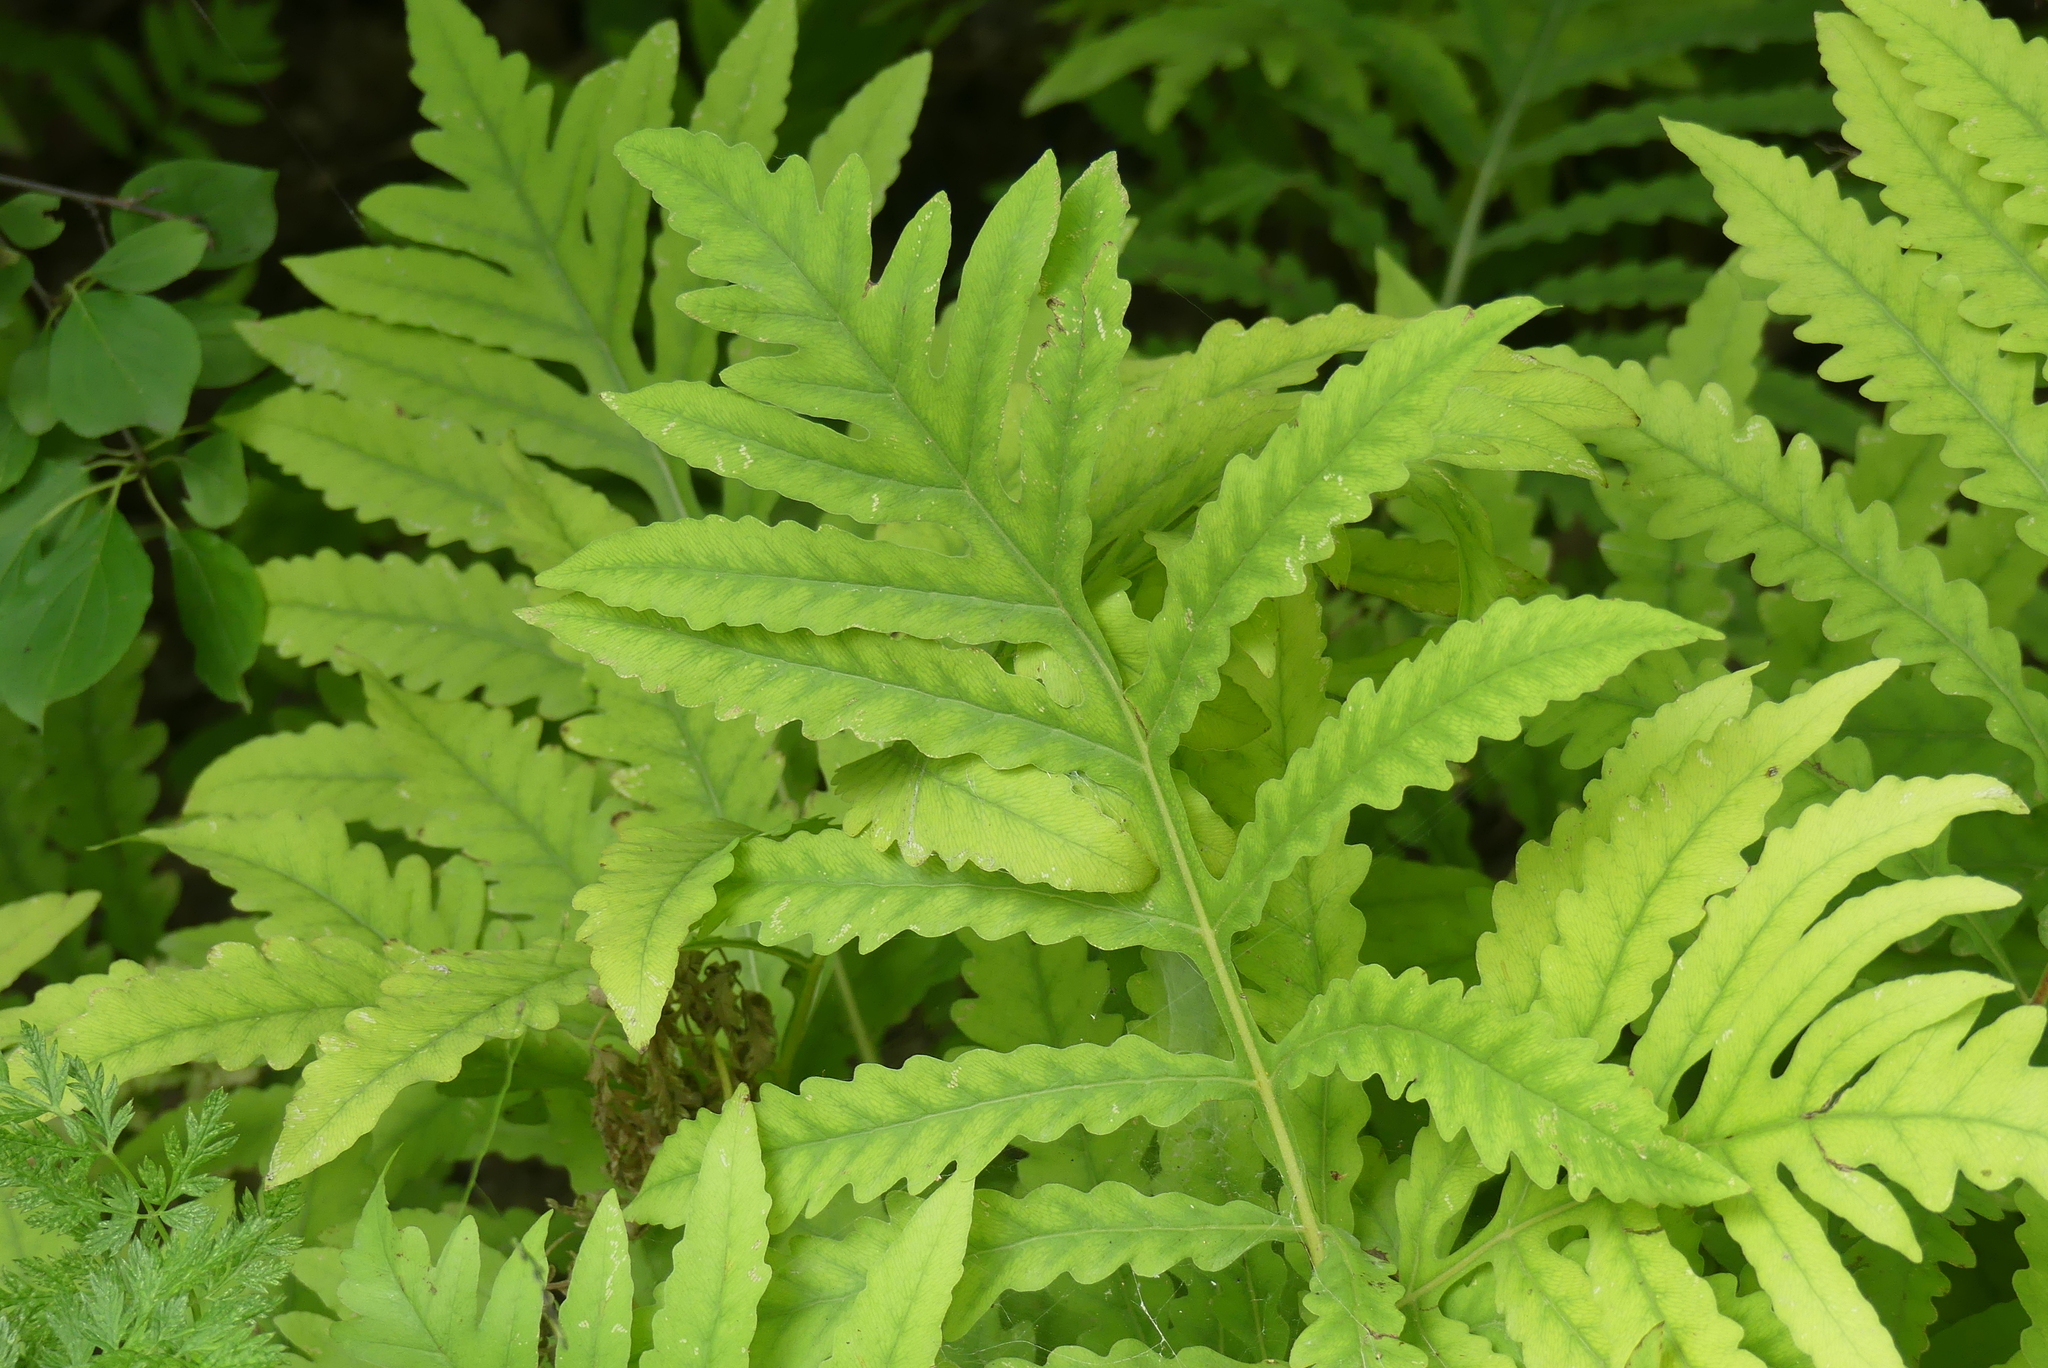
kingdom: Plantae
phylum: Tracheophyta
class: Polypodiopsida
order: Polypodiales
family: Onocleaceae
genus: Onoclea
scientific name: Onoclea sensibilis
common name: Sensitive fern
